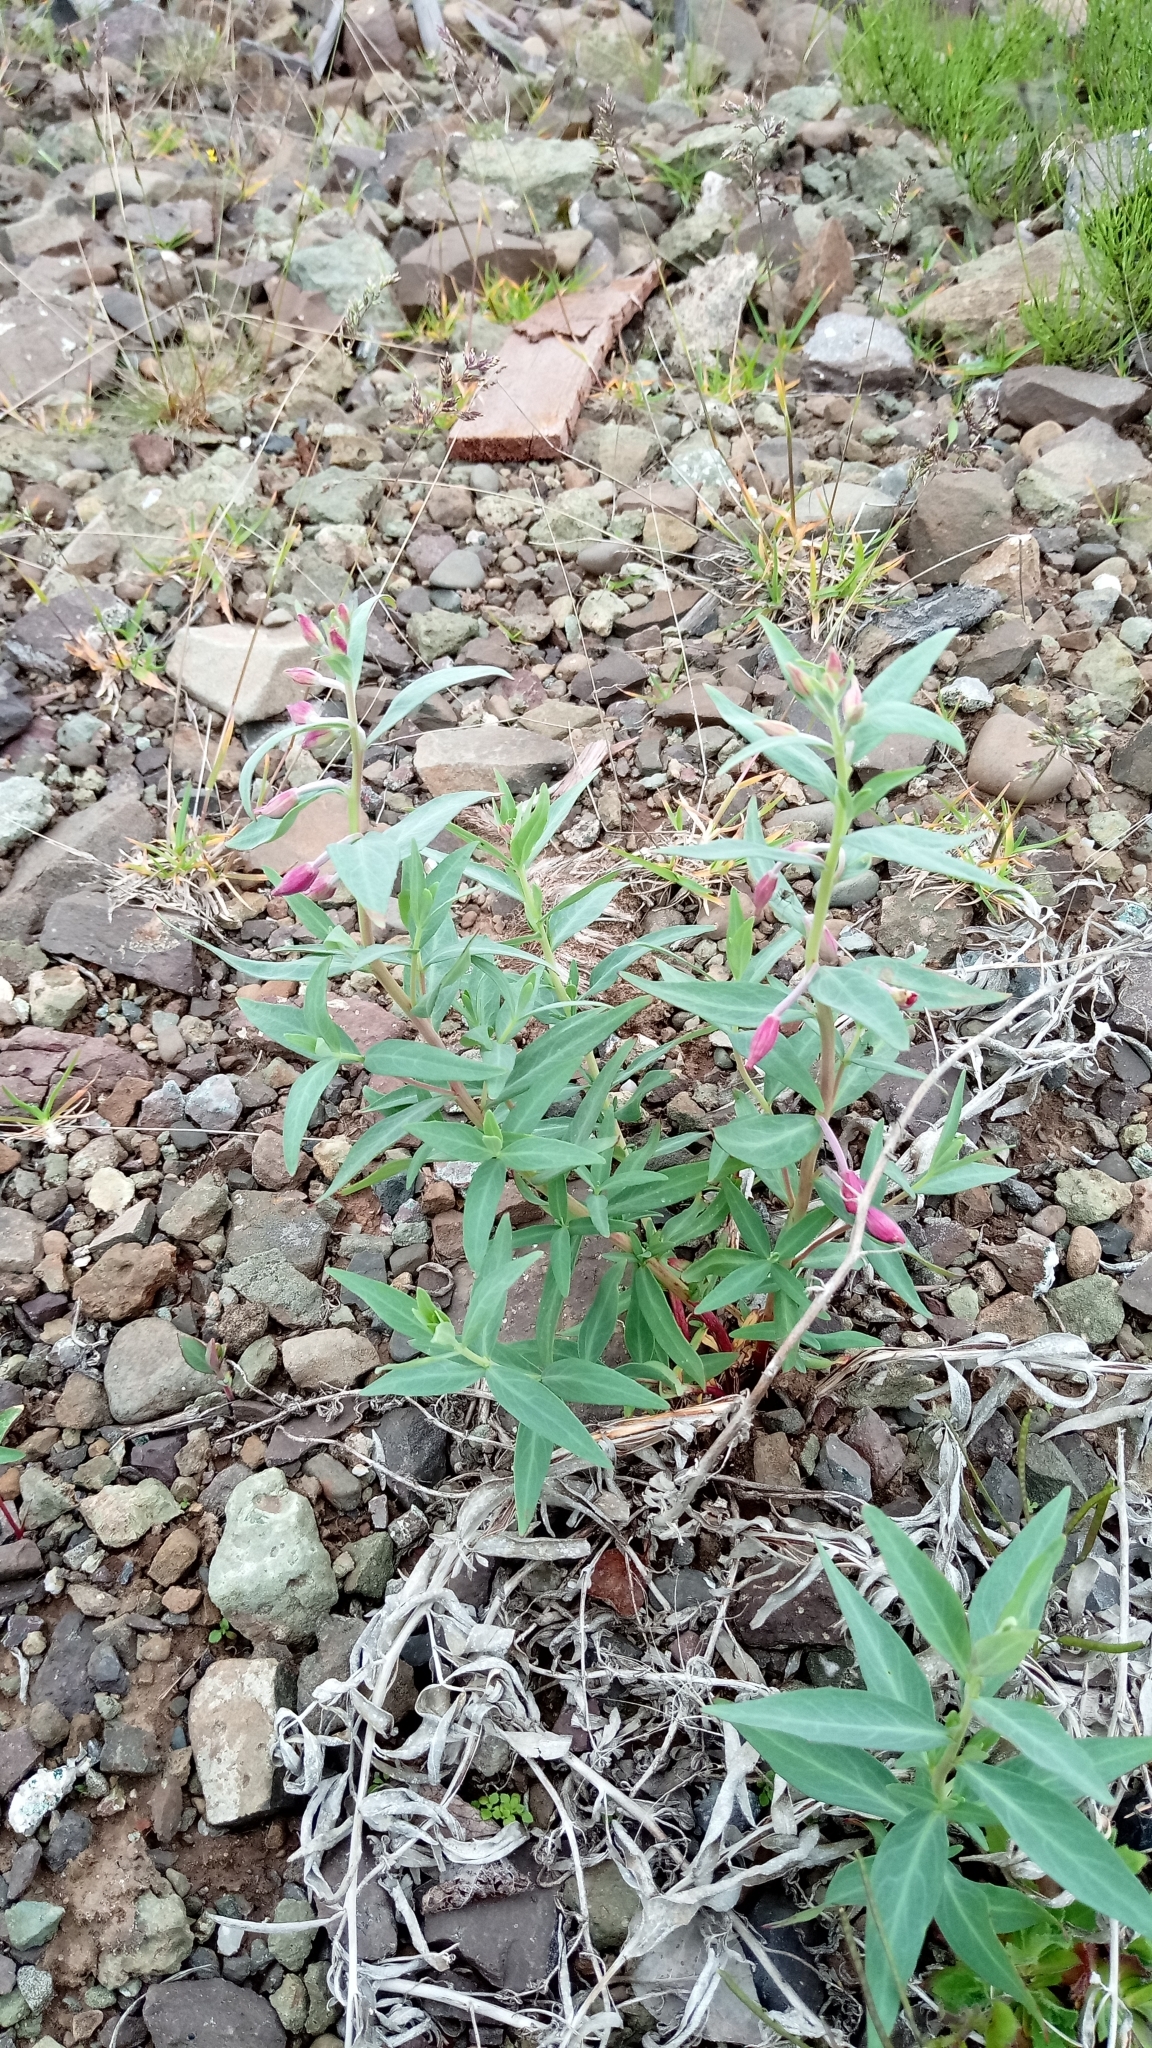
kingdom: Plantae
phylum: Tracheophyta
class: Magnoliopsida
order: Myrtales
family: Onagraceae
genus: Chamaenerion
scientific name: Chamaenerion latifolium
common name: Dwarf fireweed
